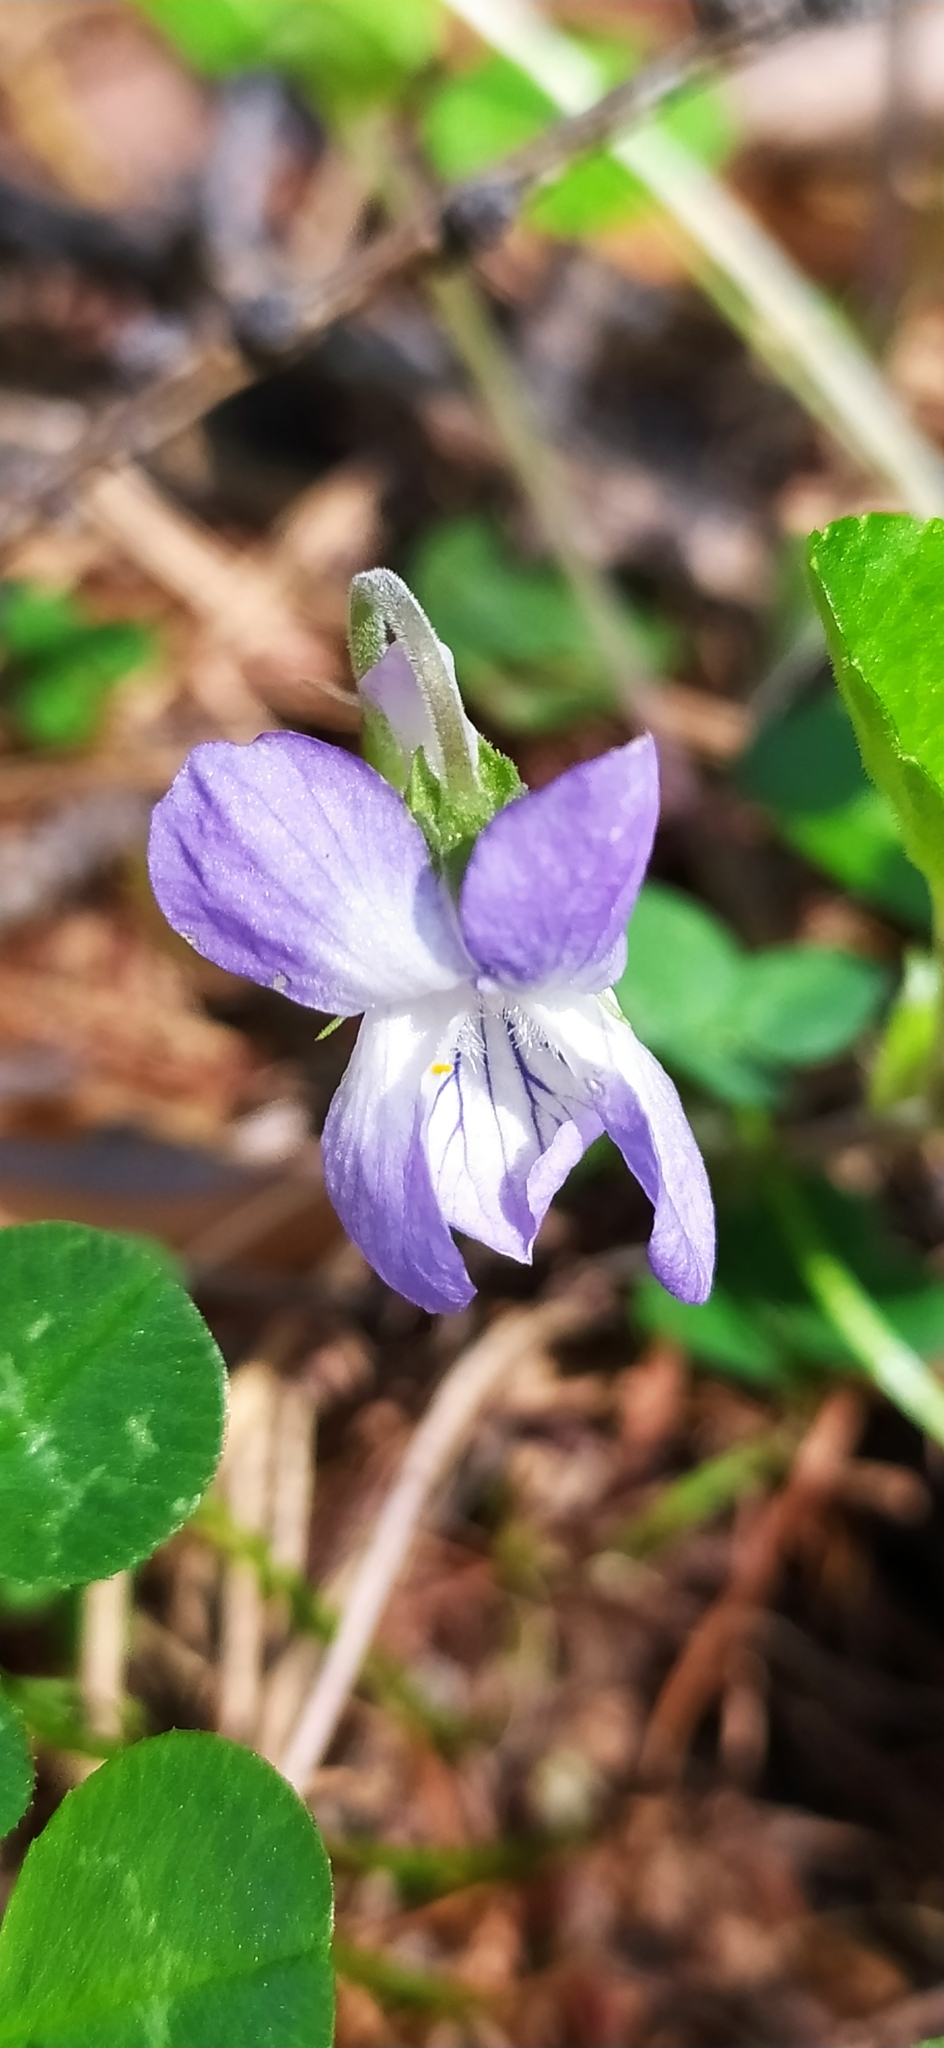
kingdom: Plantae
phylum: Tracheophyta
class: Magnoliopsida
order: Malpighiales
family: Violaceae
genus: Viola
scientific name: Viola rupestris
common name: Teesdale violet
